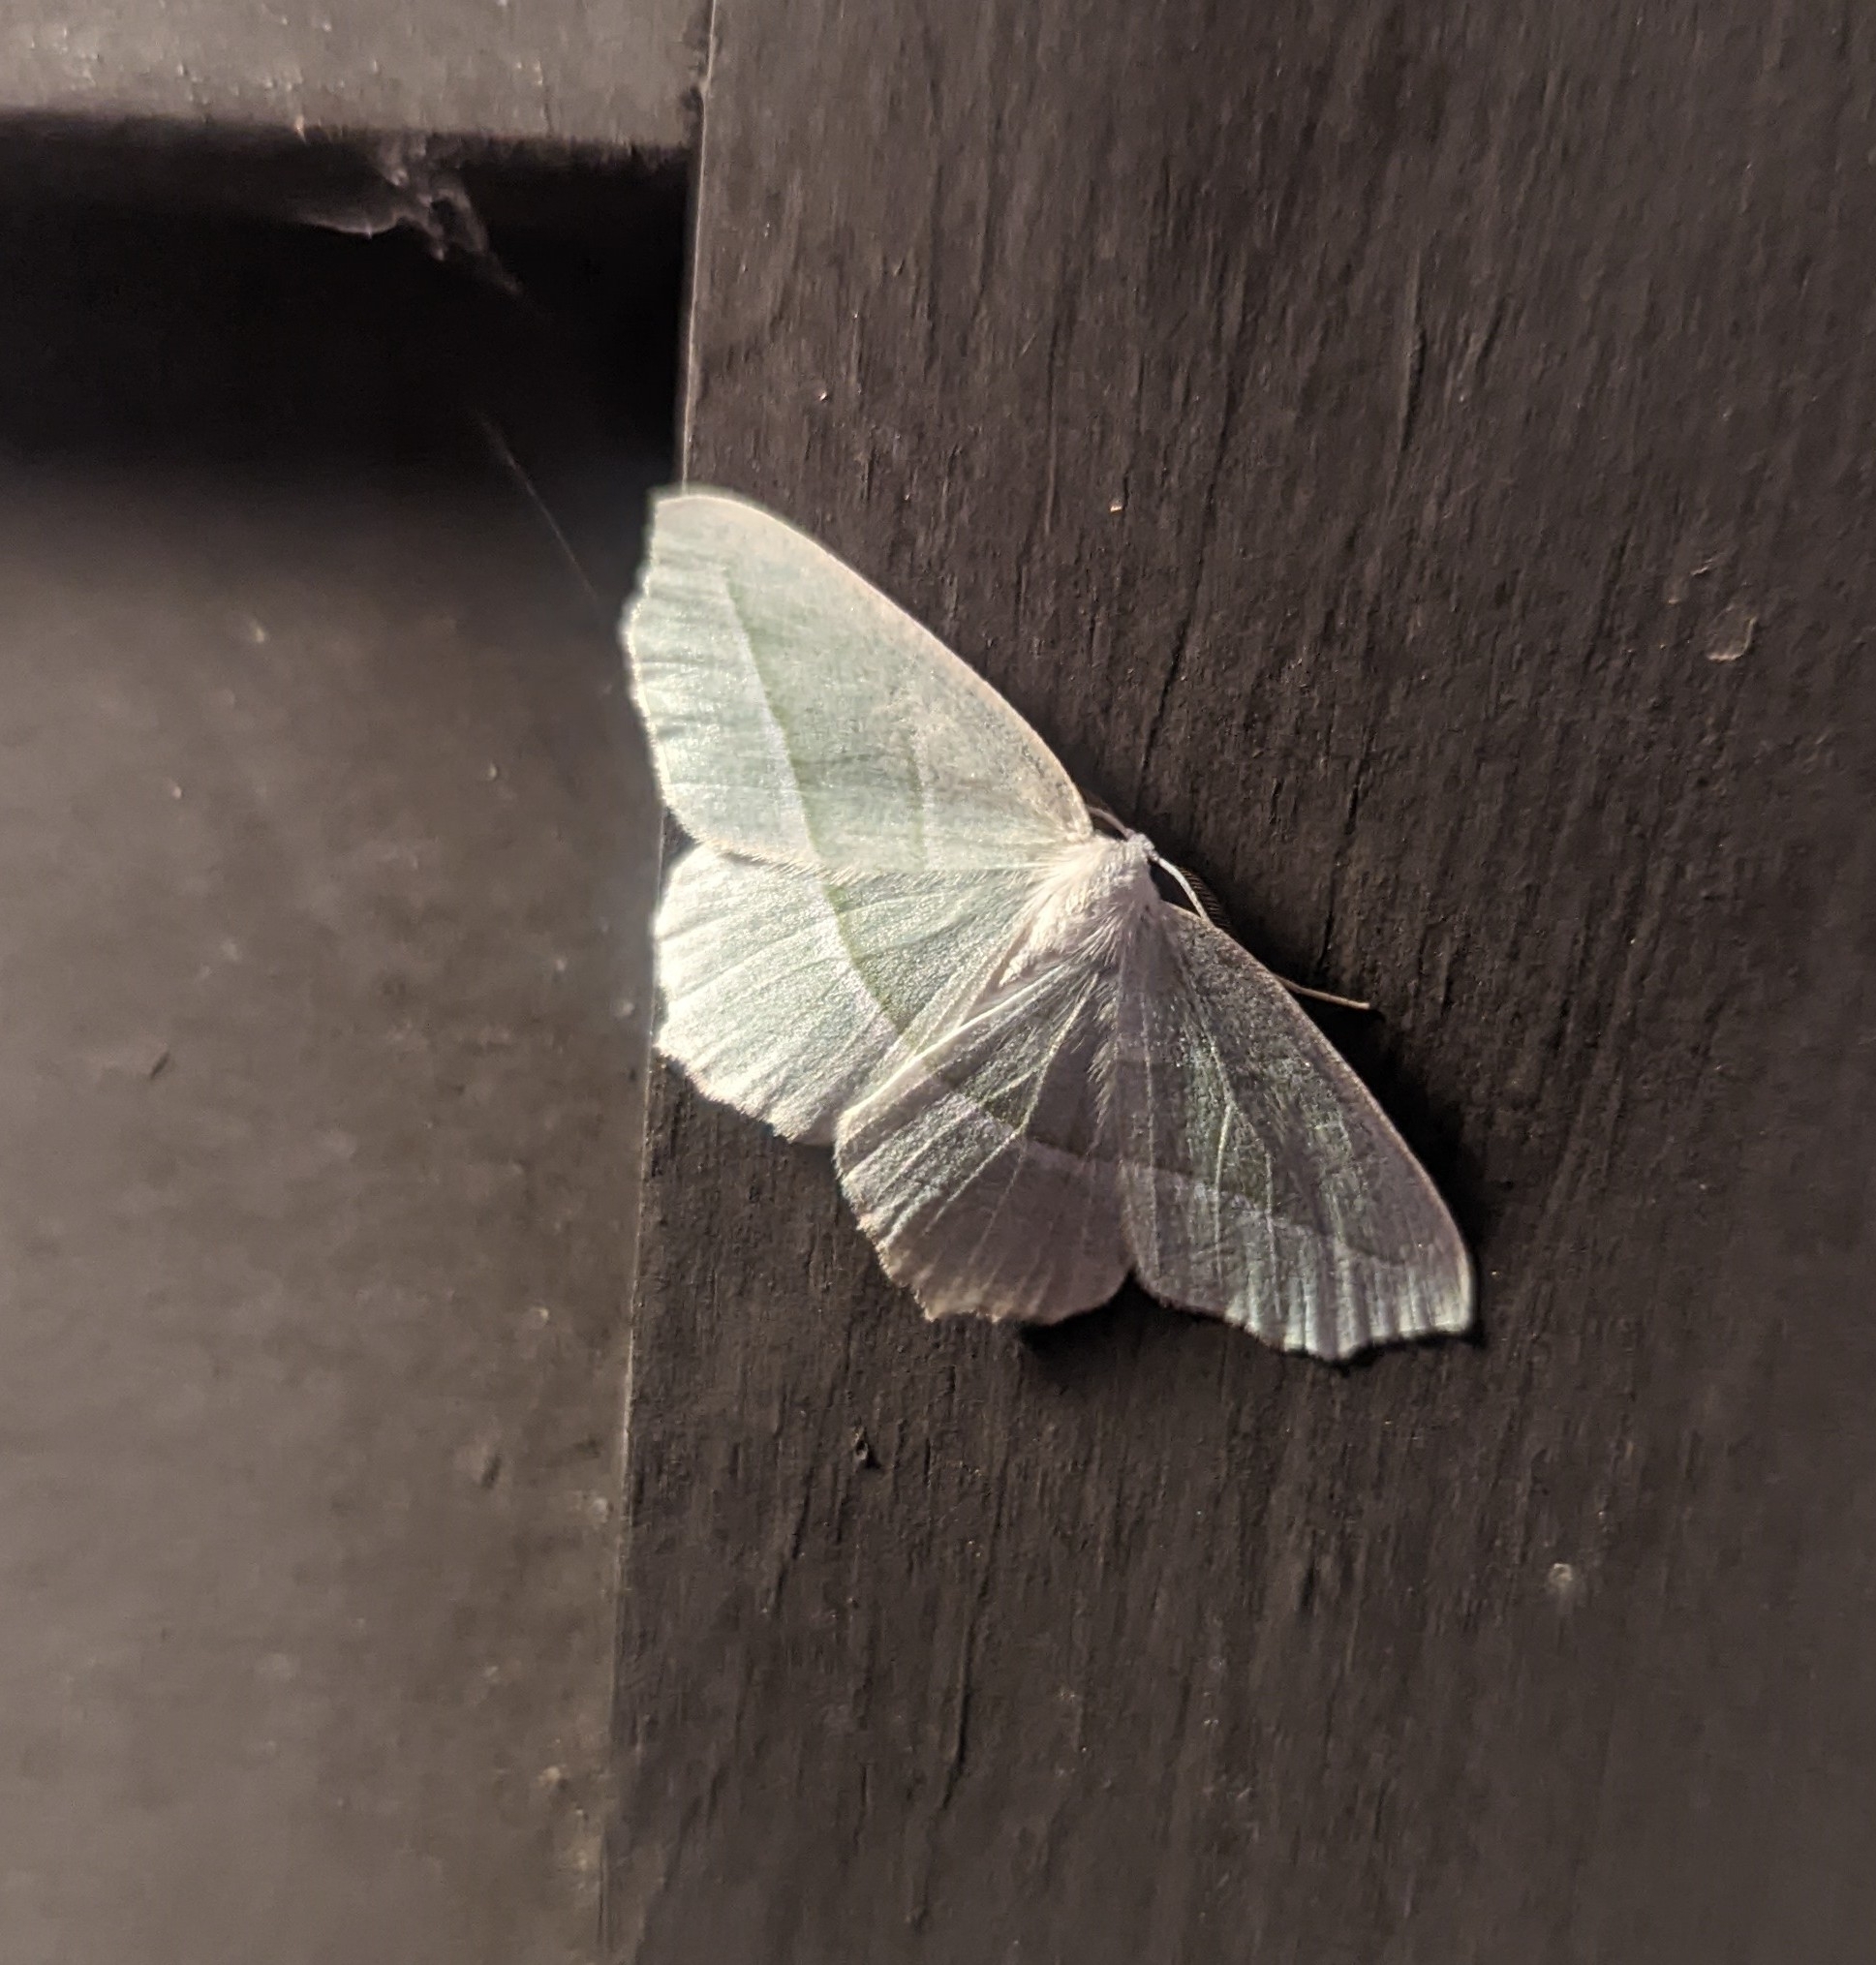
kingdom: Animalia
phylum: Arthropoda
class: Insecta
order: Lepidoptera
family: Geometridae
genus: Campaea
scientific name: Campaea perlata
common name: Fringed looper
